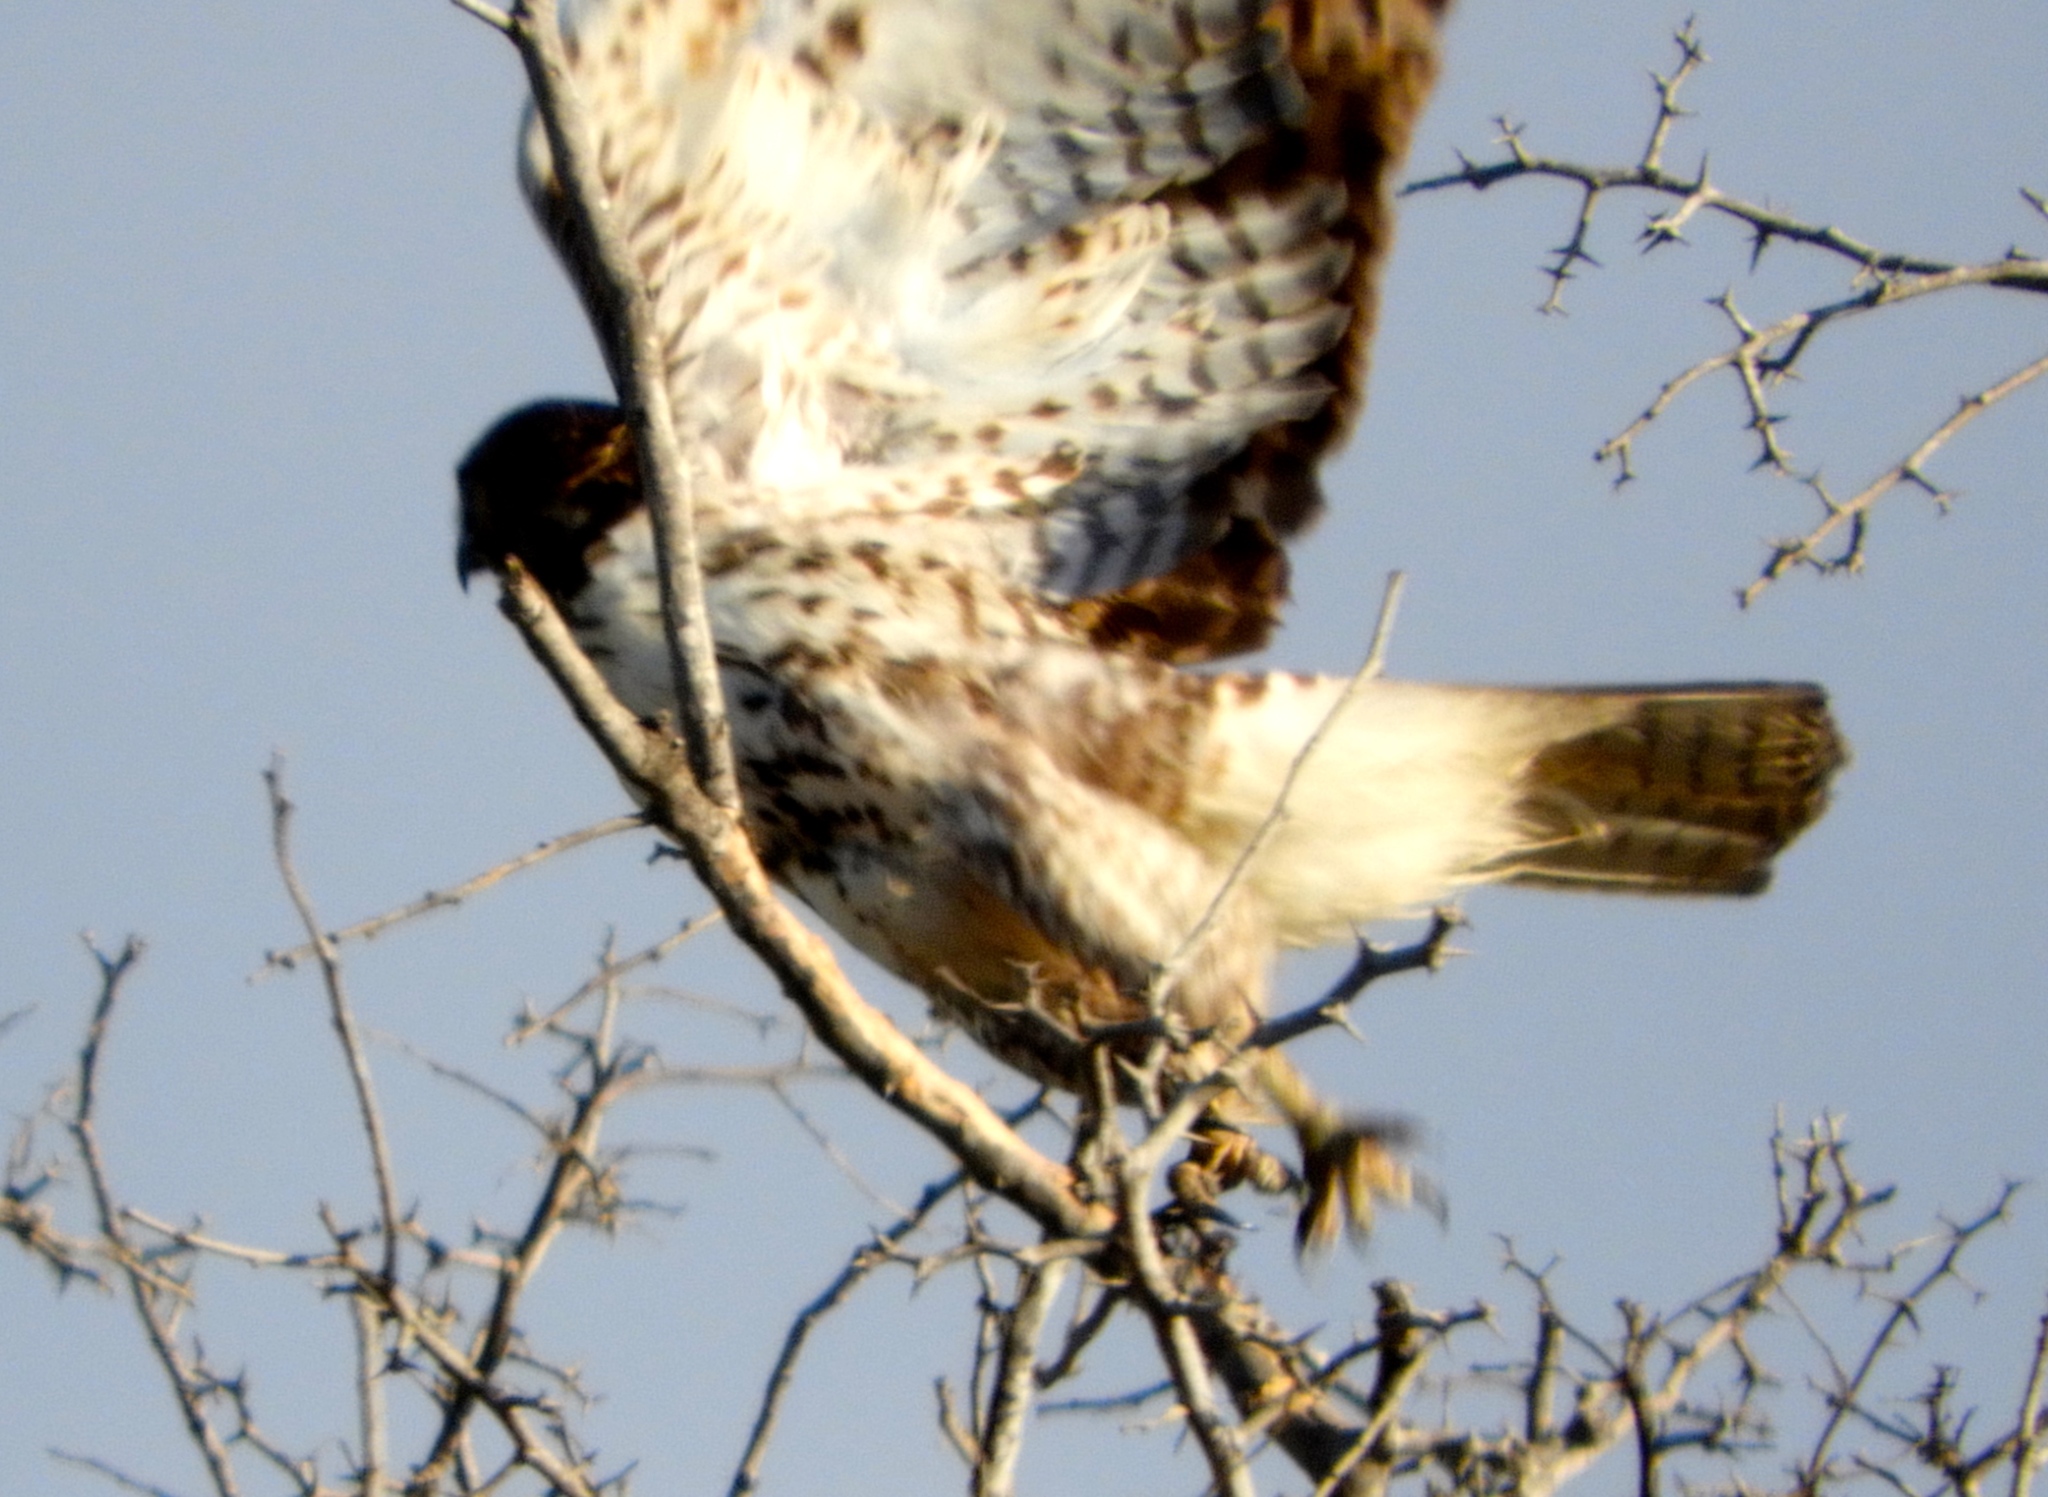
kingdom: Animalia
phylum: Chordata
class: Aves
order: Accipitriformes
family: Accipitridae
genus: Buteo
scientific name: Buteo jamaicensis
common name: Red-tailed hawk
